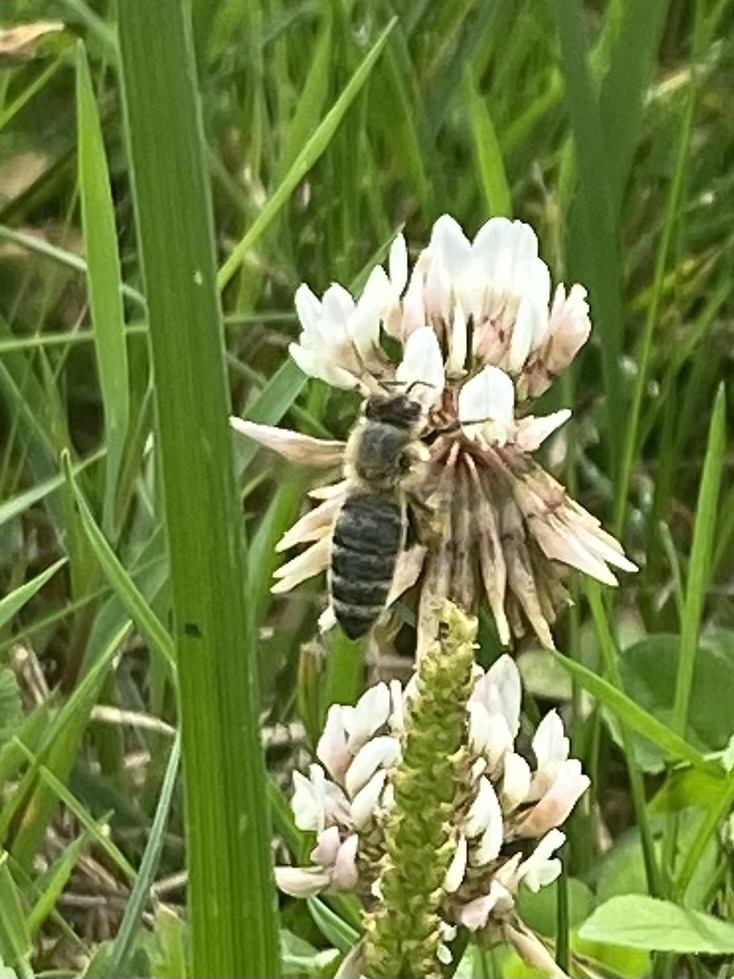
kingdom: Animalia
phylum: Arthropoda
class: Insecta
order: Hymenoptera
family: Apidae
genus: Apis
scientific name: Apis mellifera
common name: Honey bee
